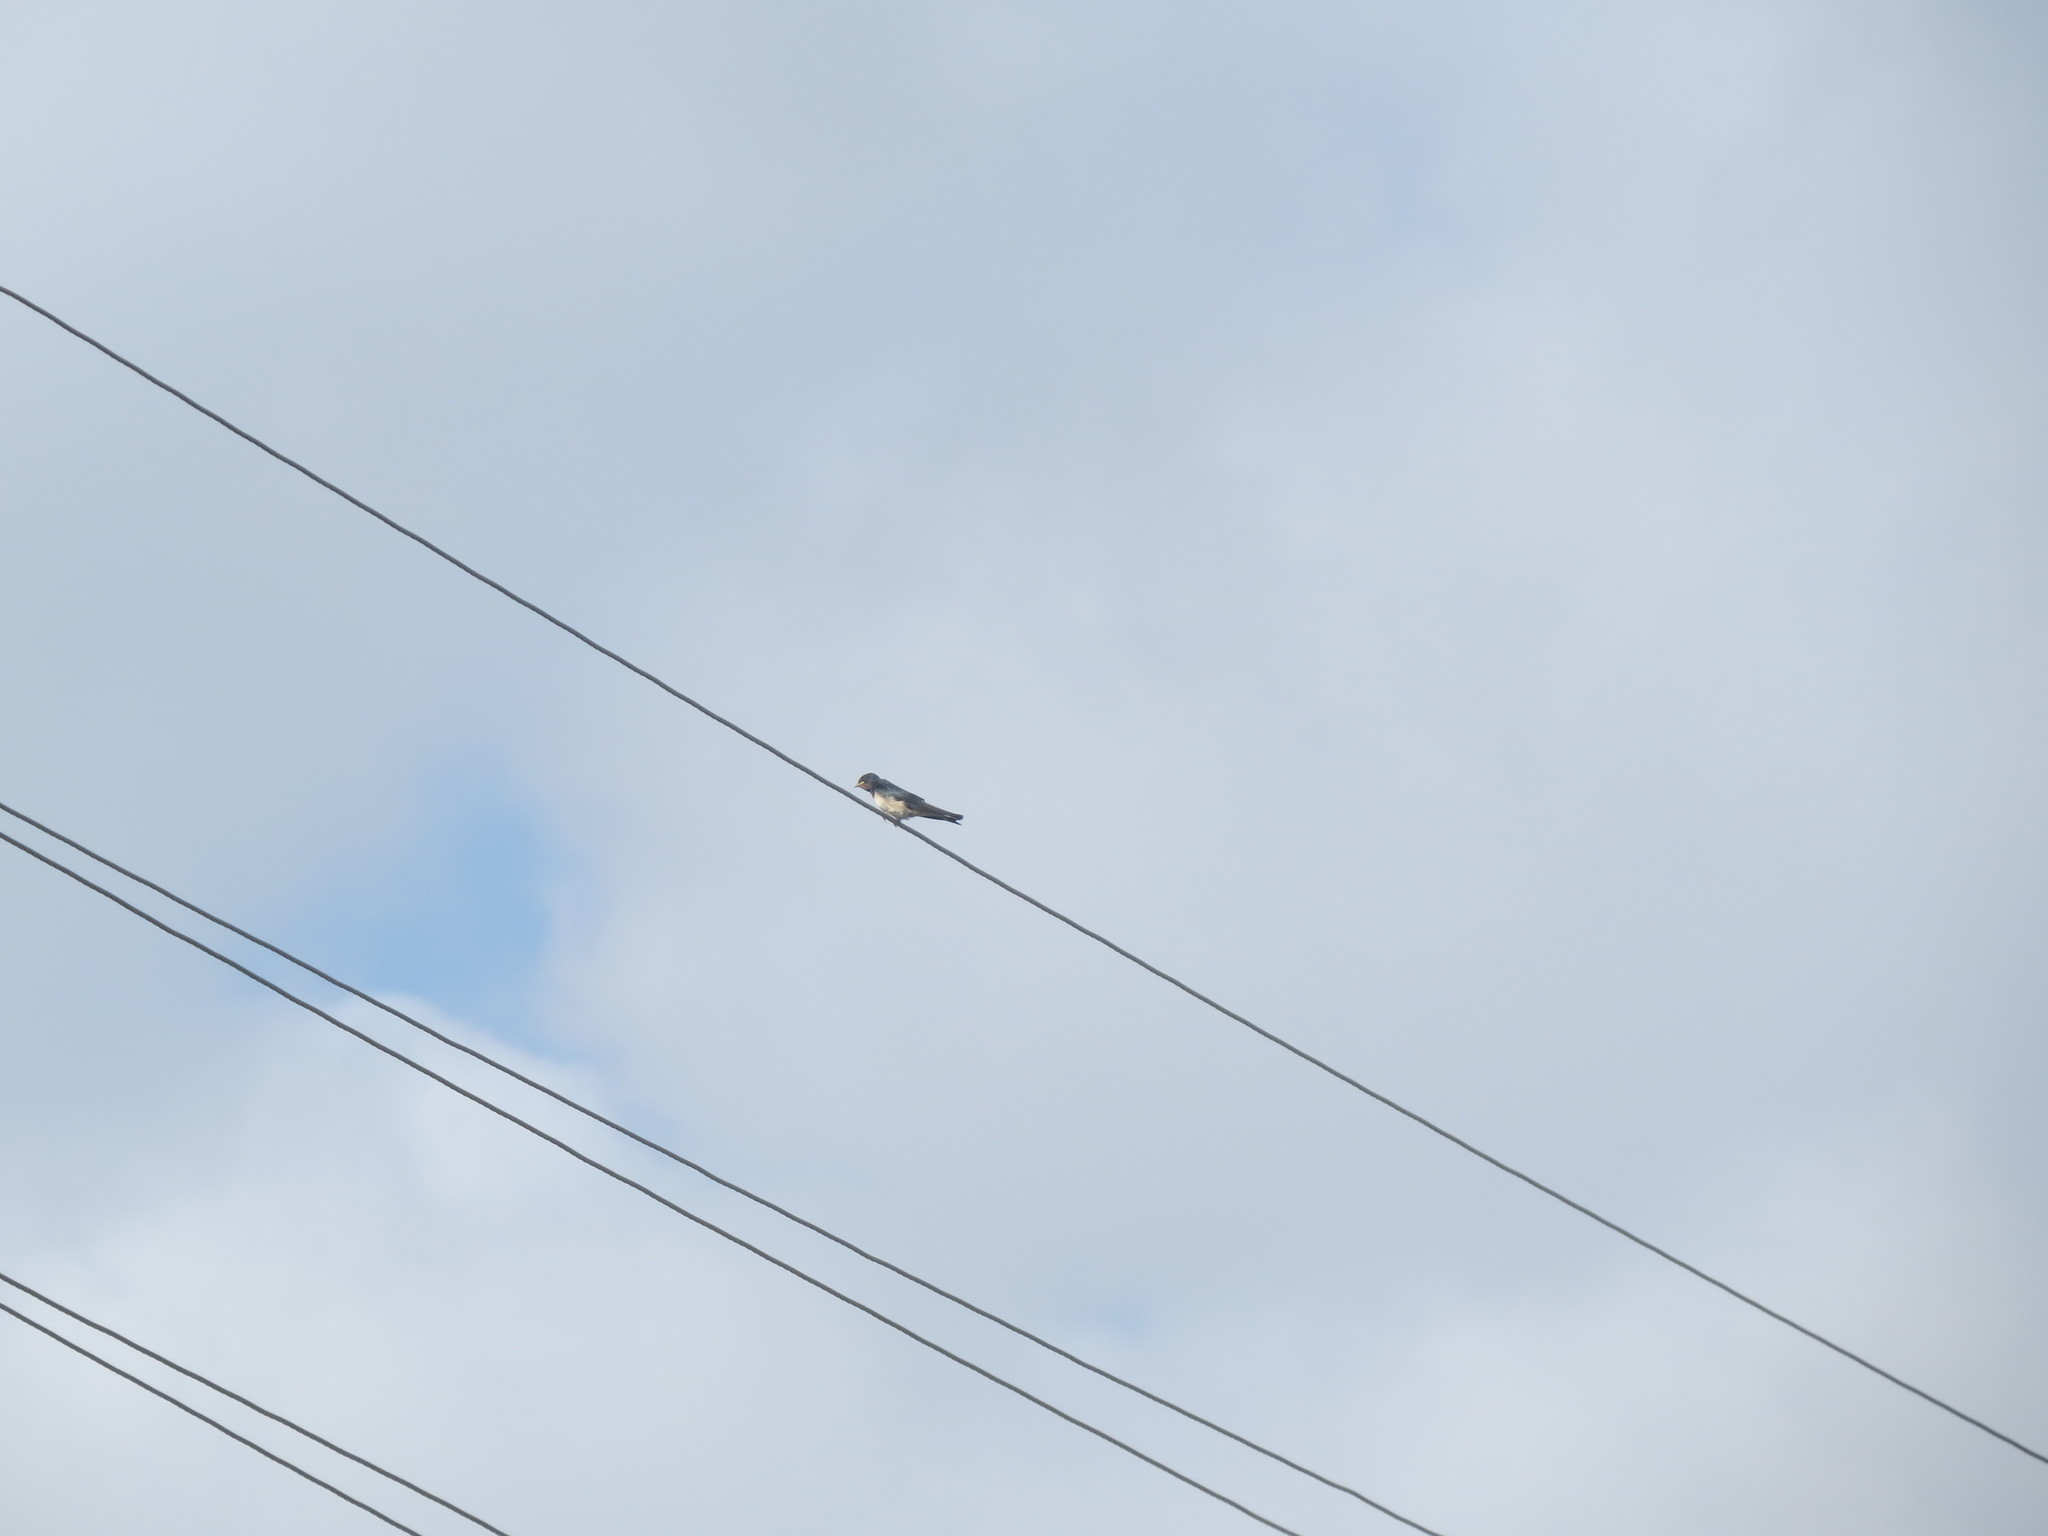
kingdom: Animalia
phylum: Chordata
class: Aves
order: Passeriformes
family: Hirundinidae
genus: Hirundo
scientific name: Hirundo rustica
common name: Barn swallow
